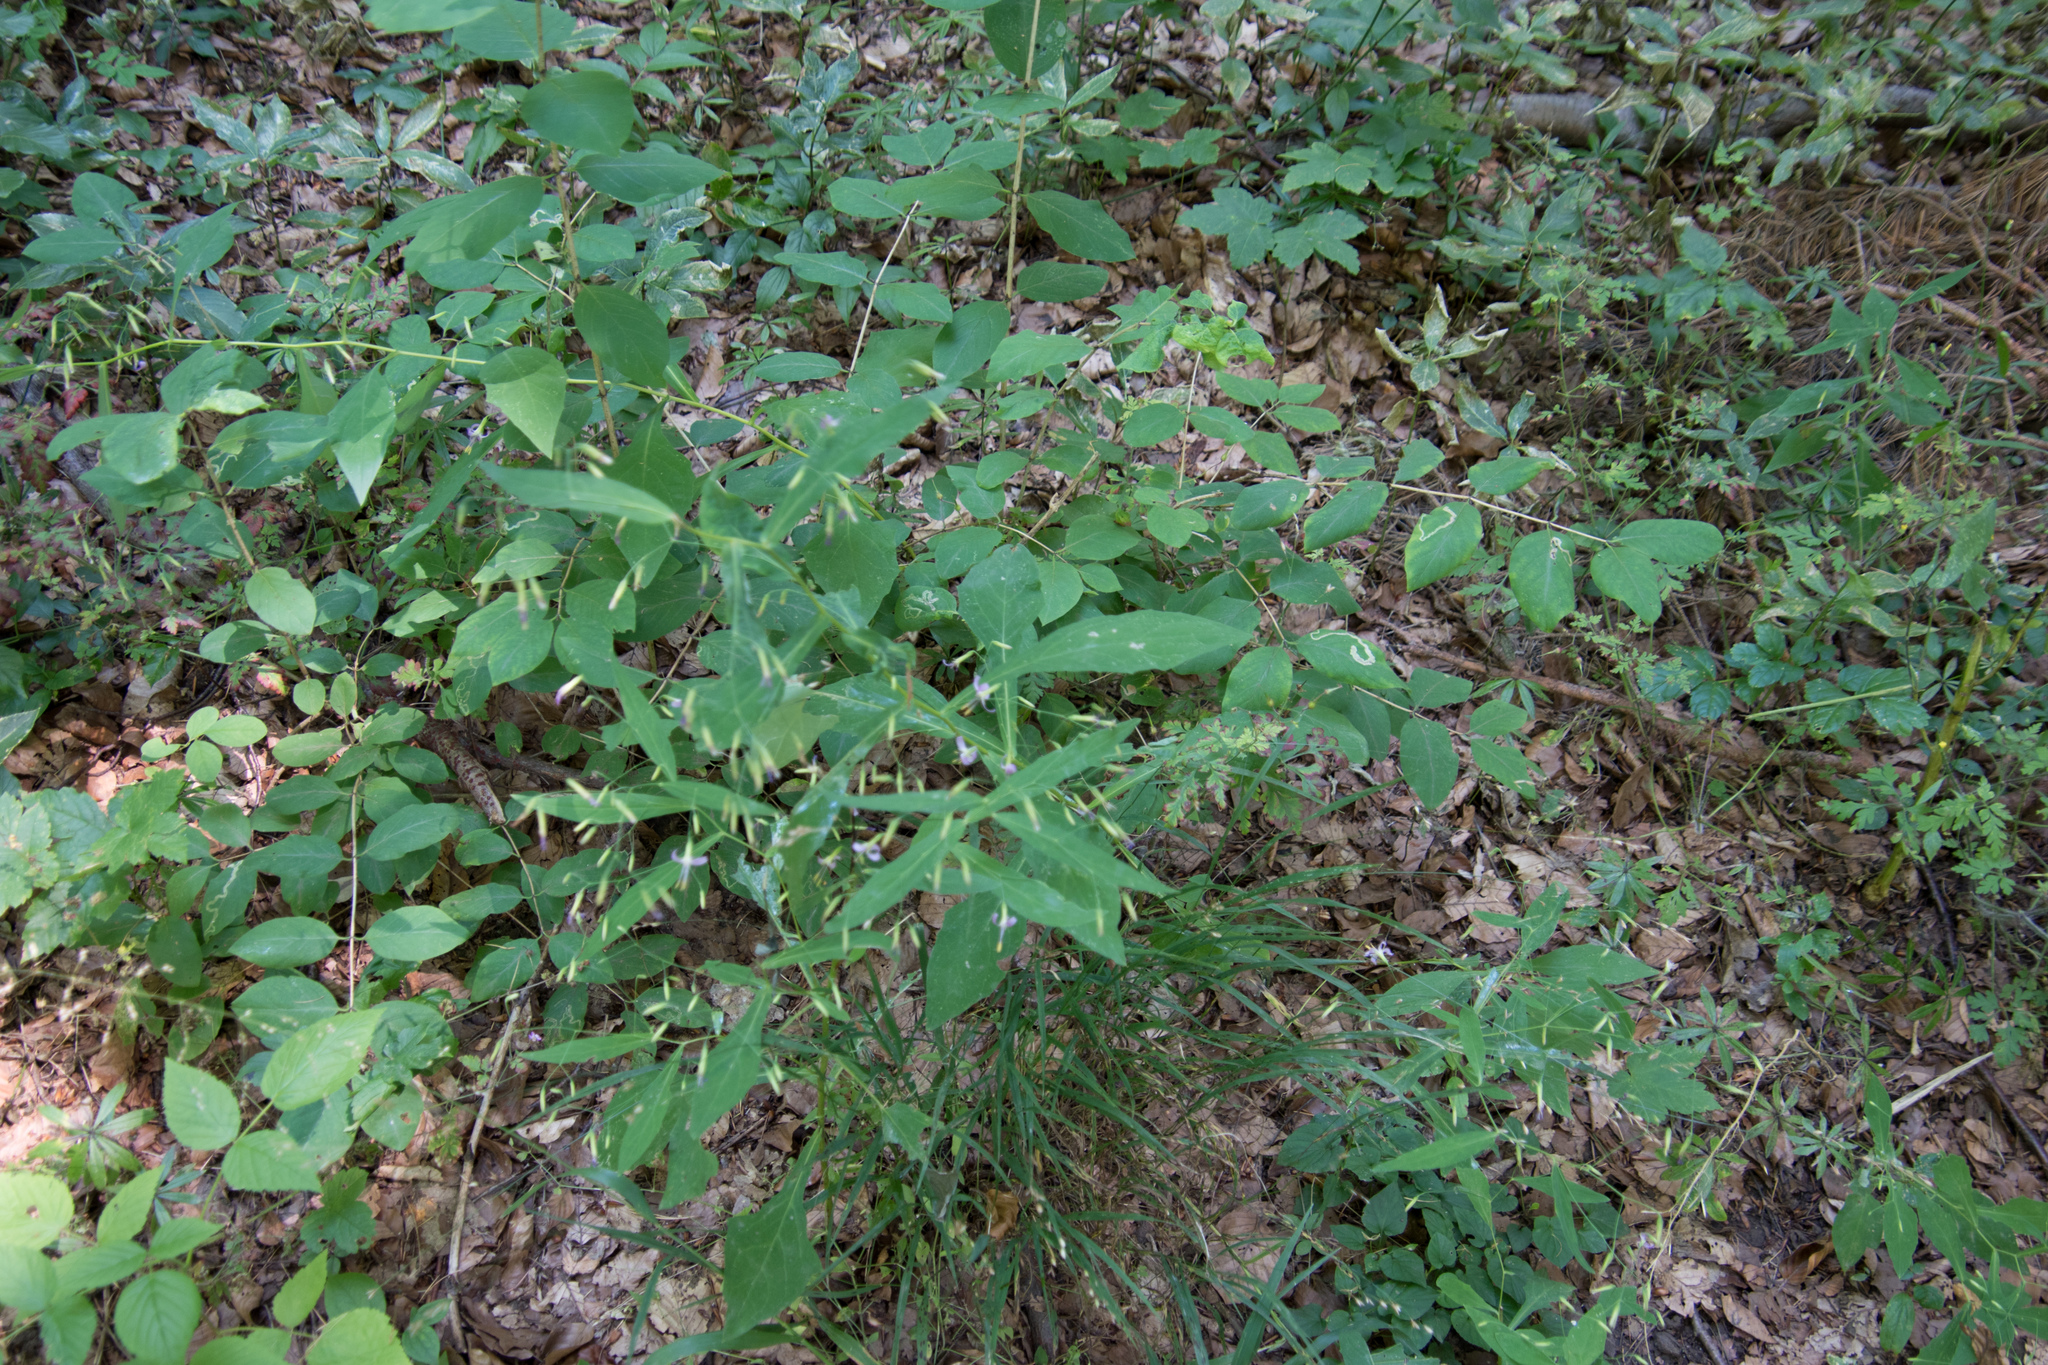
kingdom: Plantae
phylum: Tracheophyta
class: Magnoliopsida
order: Asterales
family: Asteraceae
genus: Prenanthes
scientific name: Prenanthes purpurea
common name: Purple lettuce
